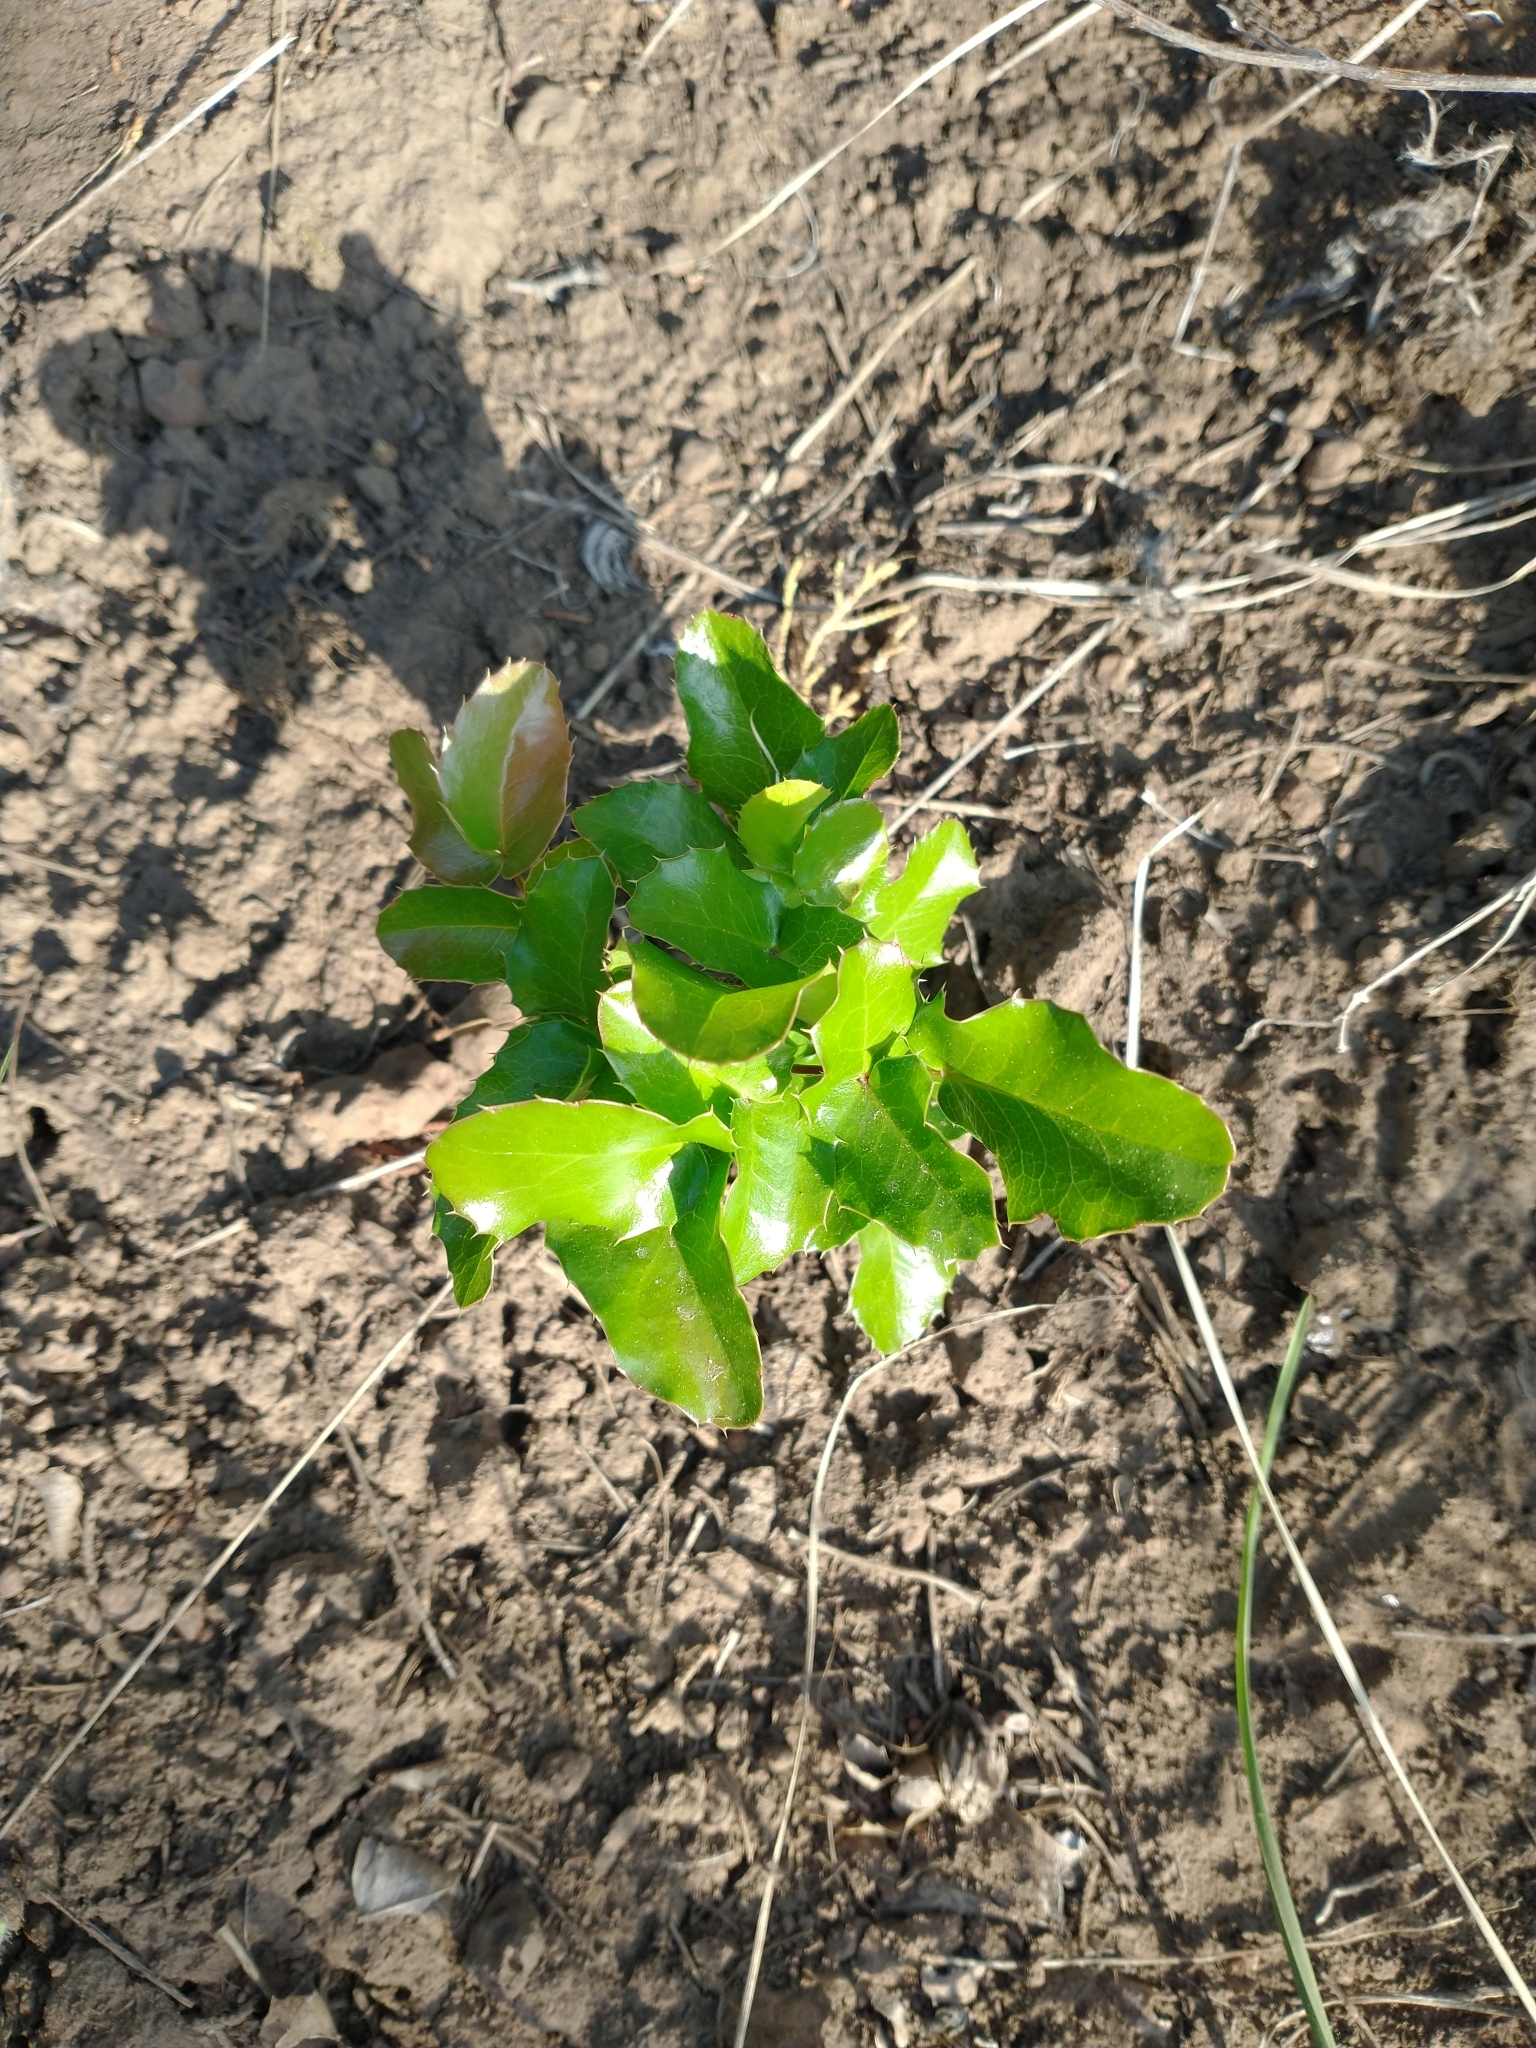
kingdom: Plantae
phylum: Tracheophyta
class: Magnoliopsida
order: Ranunculales
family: Berberidaceae
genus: Mahonia
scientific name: Mahonia repens
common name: Creeping oregon-grape
